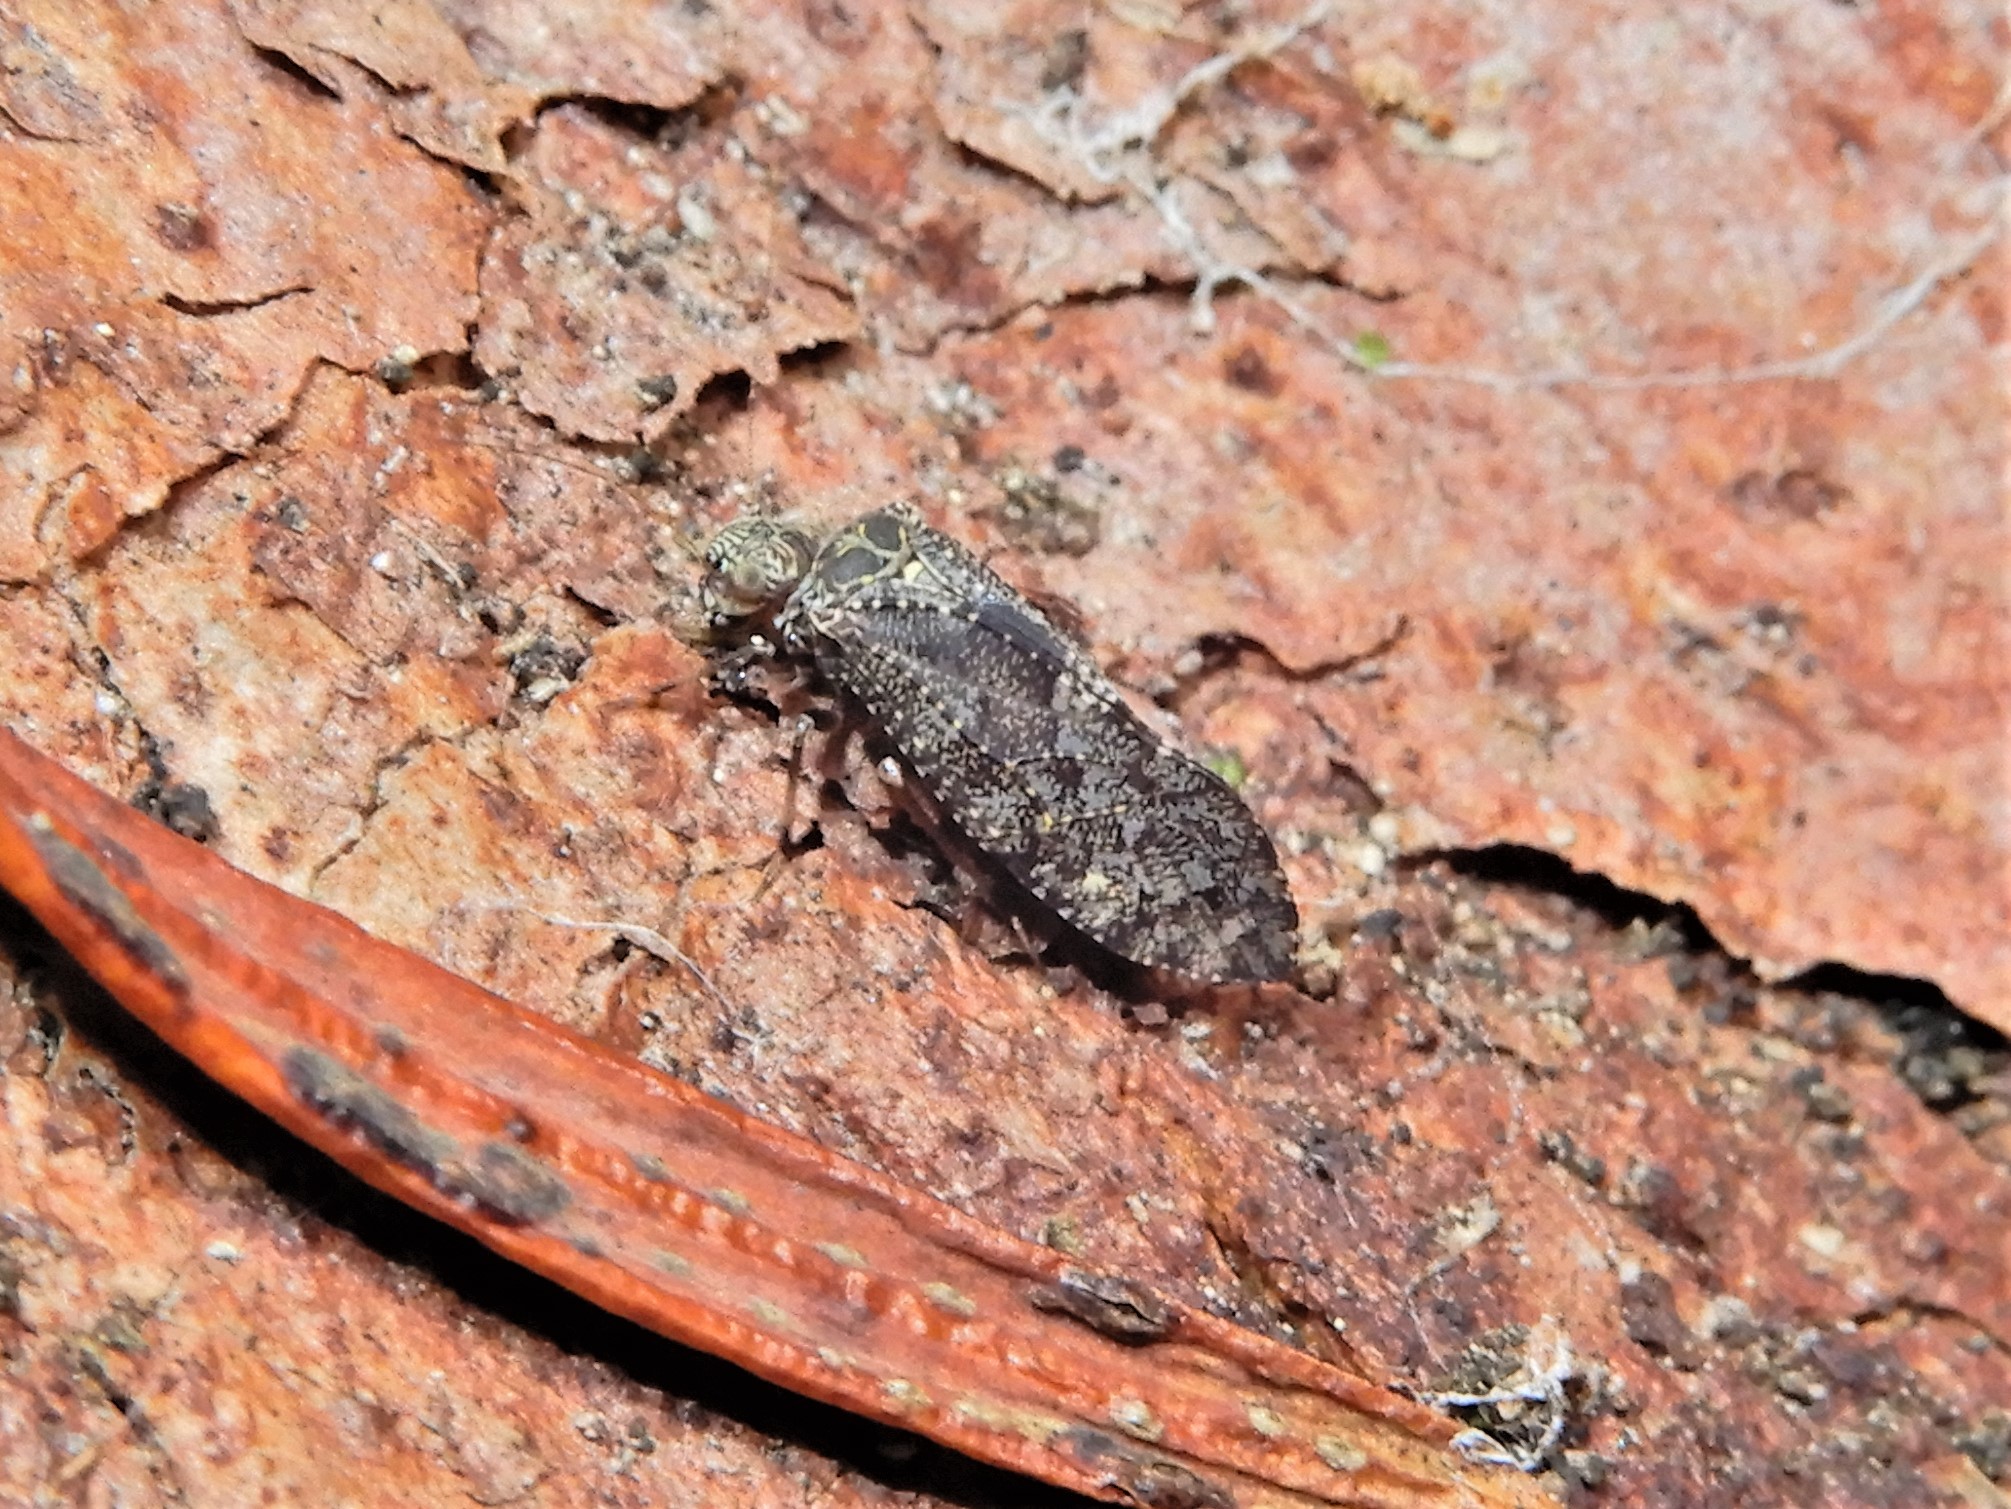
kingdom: Animalia
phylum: Arthropoda
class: Insecta
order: Psocodea
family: Myopsocidae
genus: Nimbopsocus
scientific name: Nimbopsocus australis
